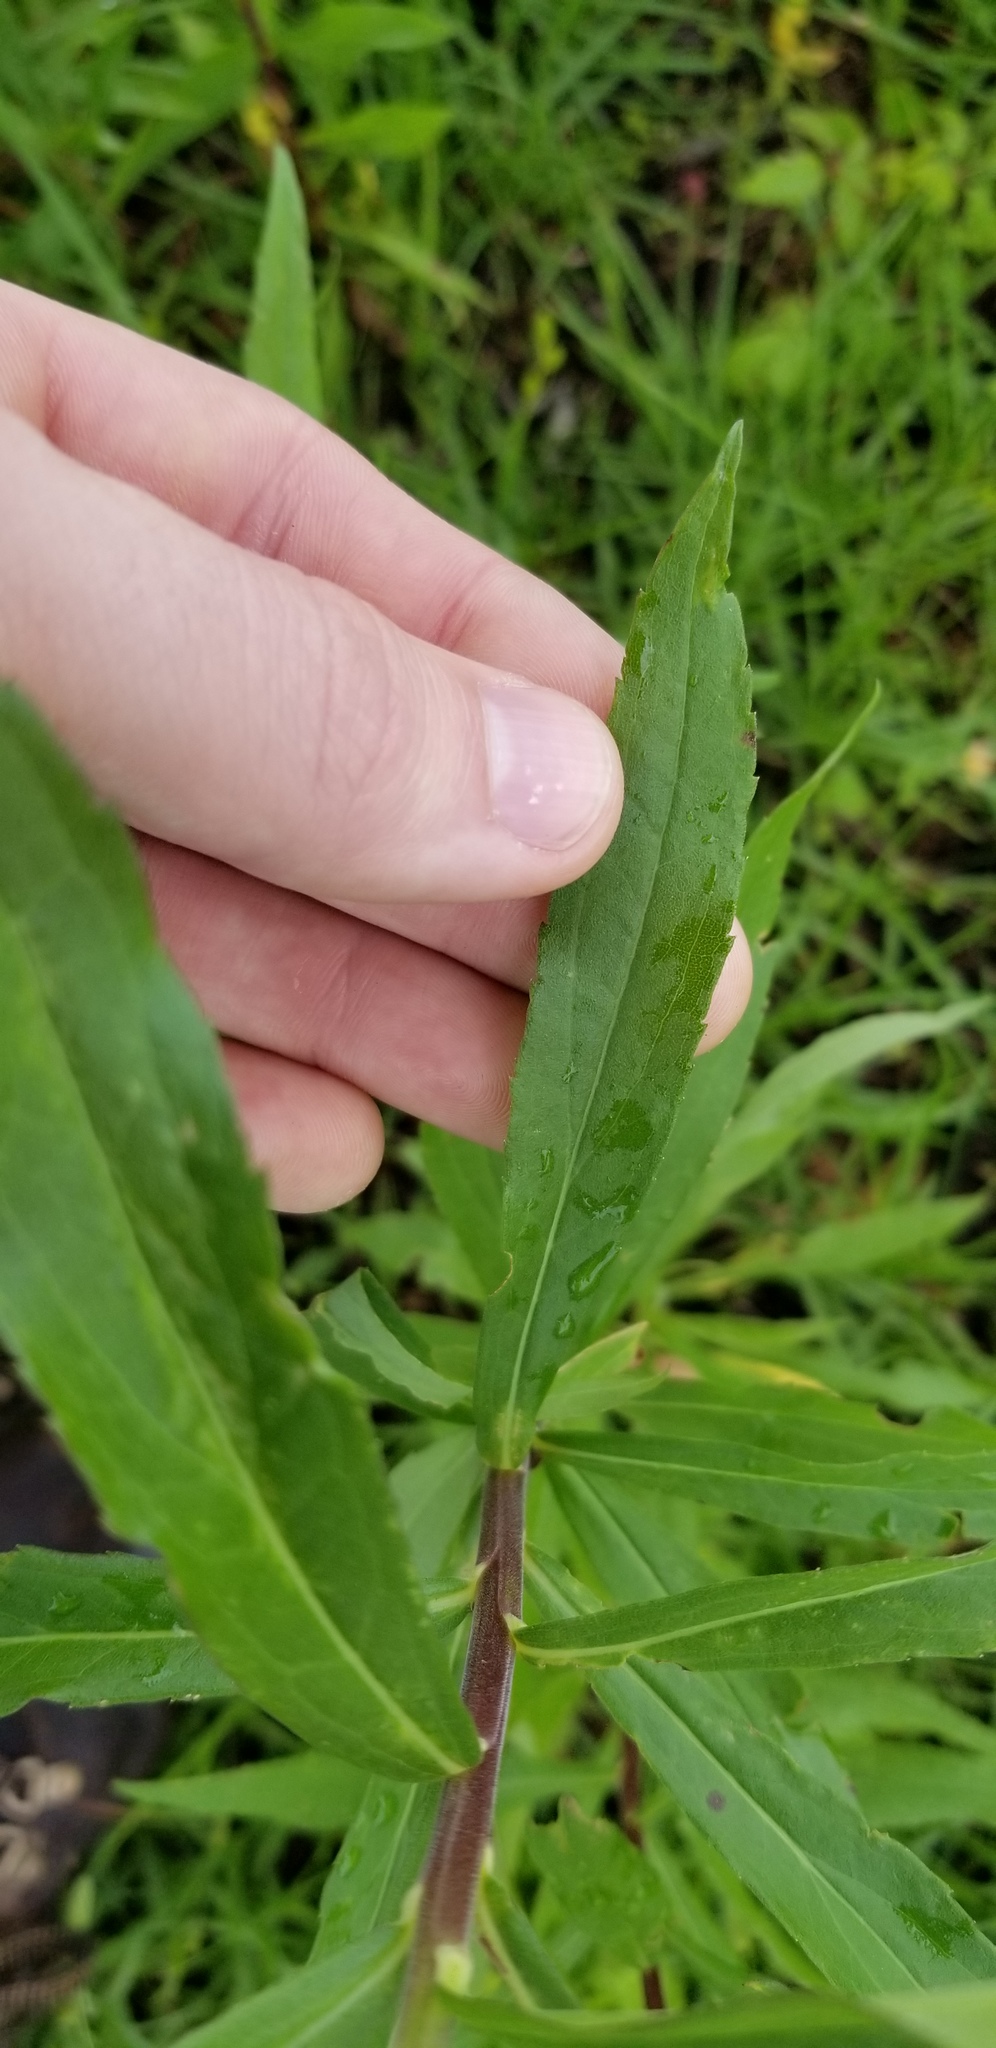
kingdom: Plantae
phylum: Tracheophyta
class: Magnoliopsida
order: Asterales
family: Asteraceae
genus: Solidago
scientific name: Solidago altissima
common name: Late goldenrod
